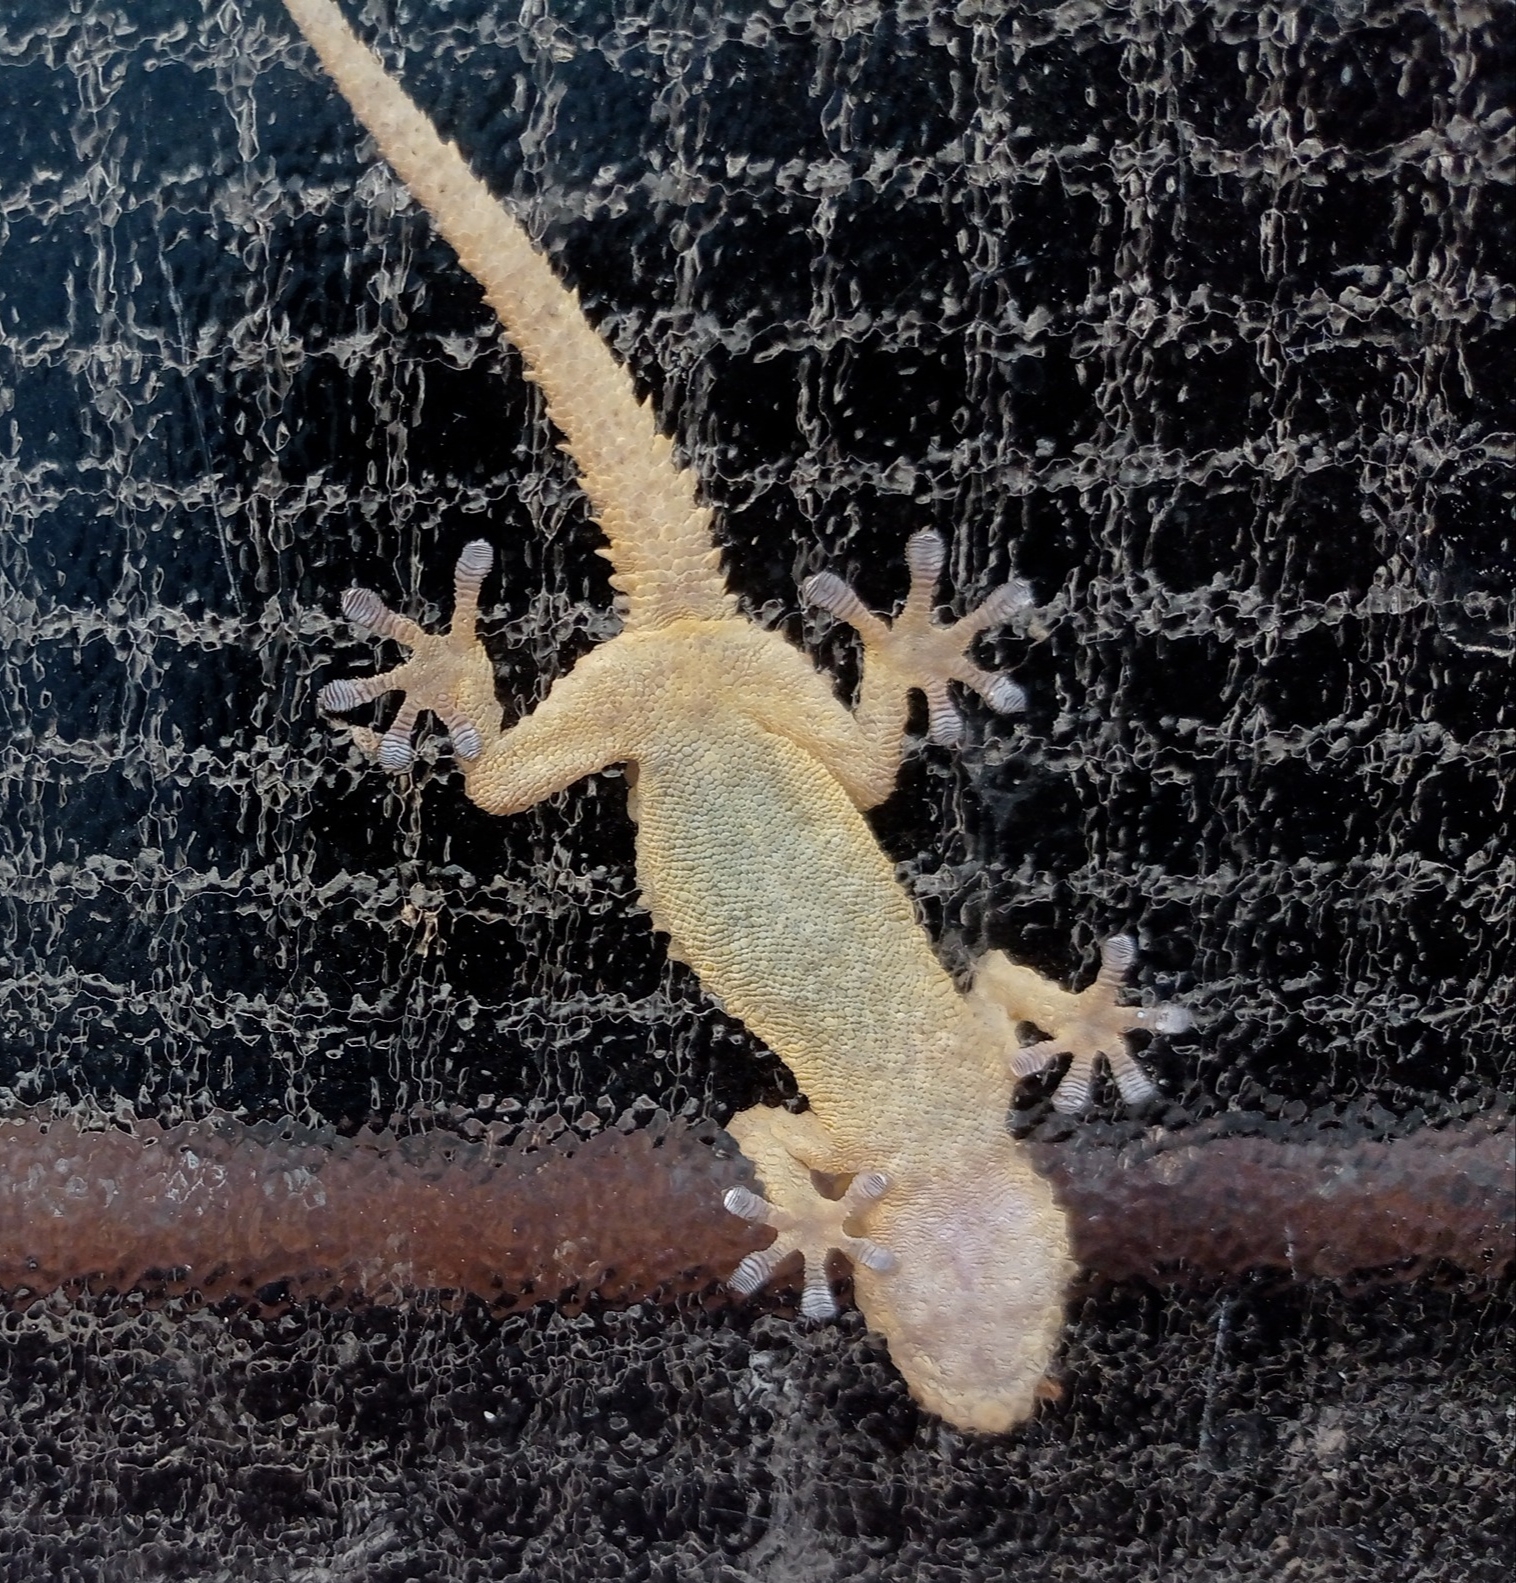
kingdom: Animalia
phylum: Chordata
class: Squamata
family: Phyllodactylidae
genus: Tarentola
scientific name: Tarentola mauritanica
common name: Moorish gecko
